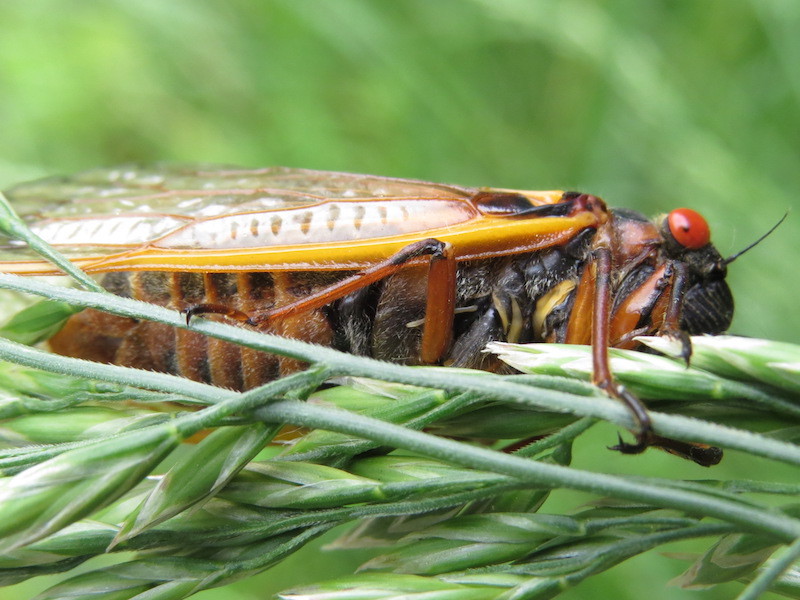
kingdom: Animalia
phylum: Arthropoda
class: Insecta
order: Hemiptera
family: Cicadidae
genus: Magicicada
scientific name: Magicicada septendecim
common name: Periodical cicada
